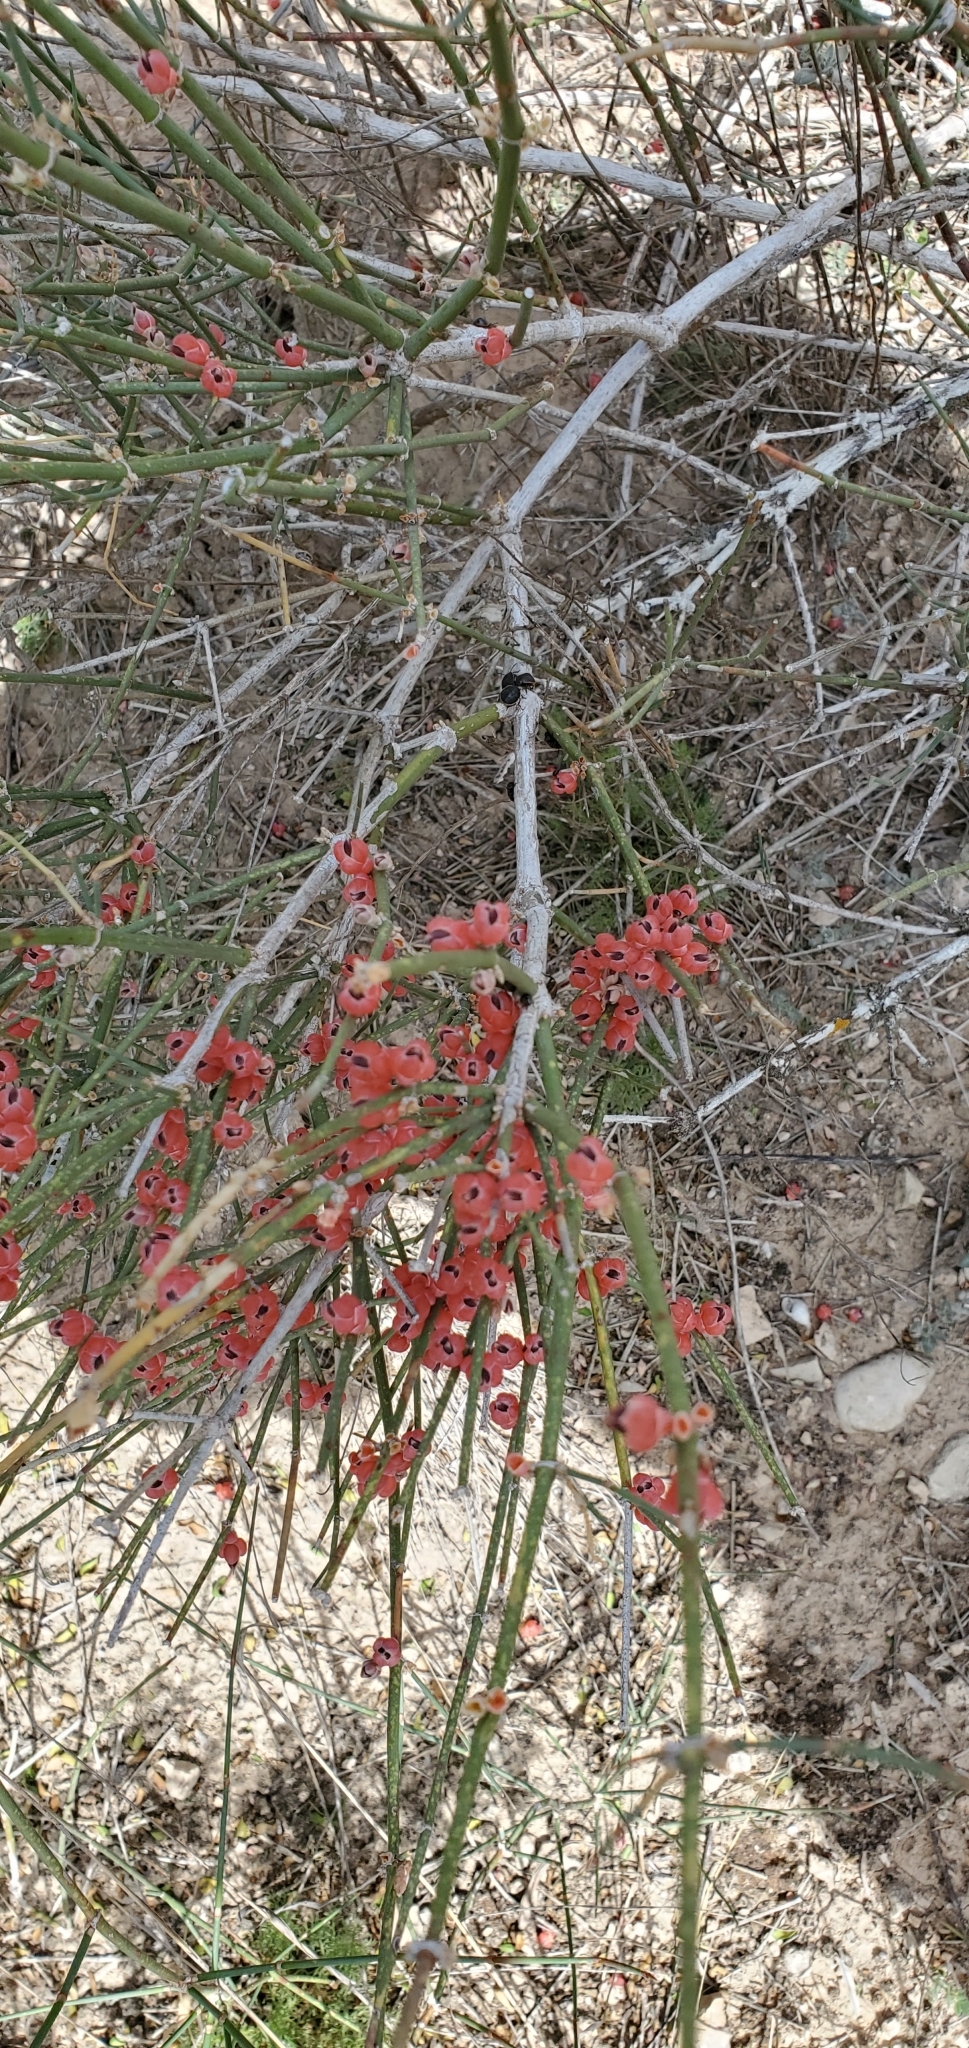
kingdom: Plantae
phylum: Tracheophyta
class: Gnetopsida
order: Ephedrales
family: Ephedraceae
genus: Ephedra
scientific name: Ephedra antisyphilitica
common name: Clipweed
